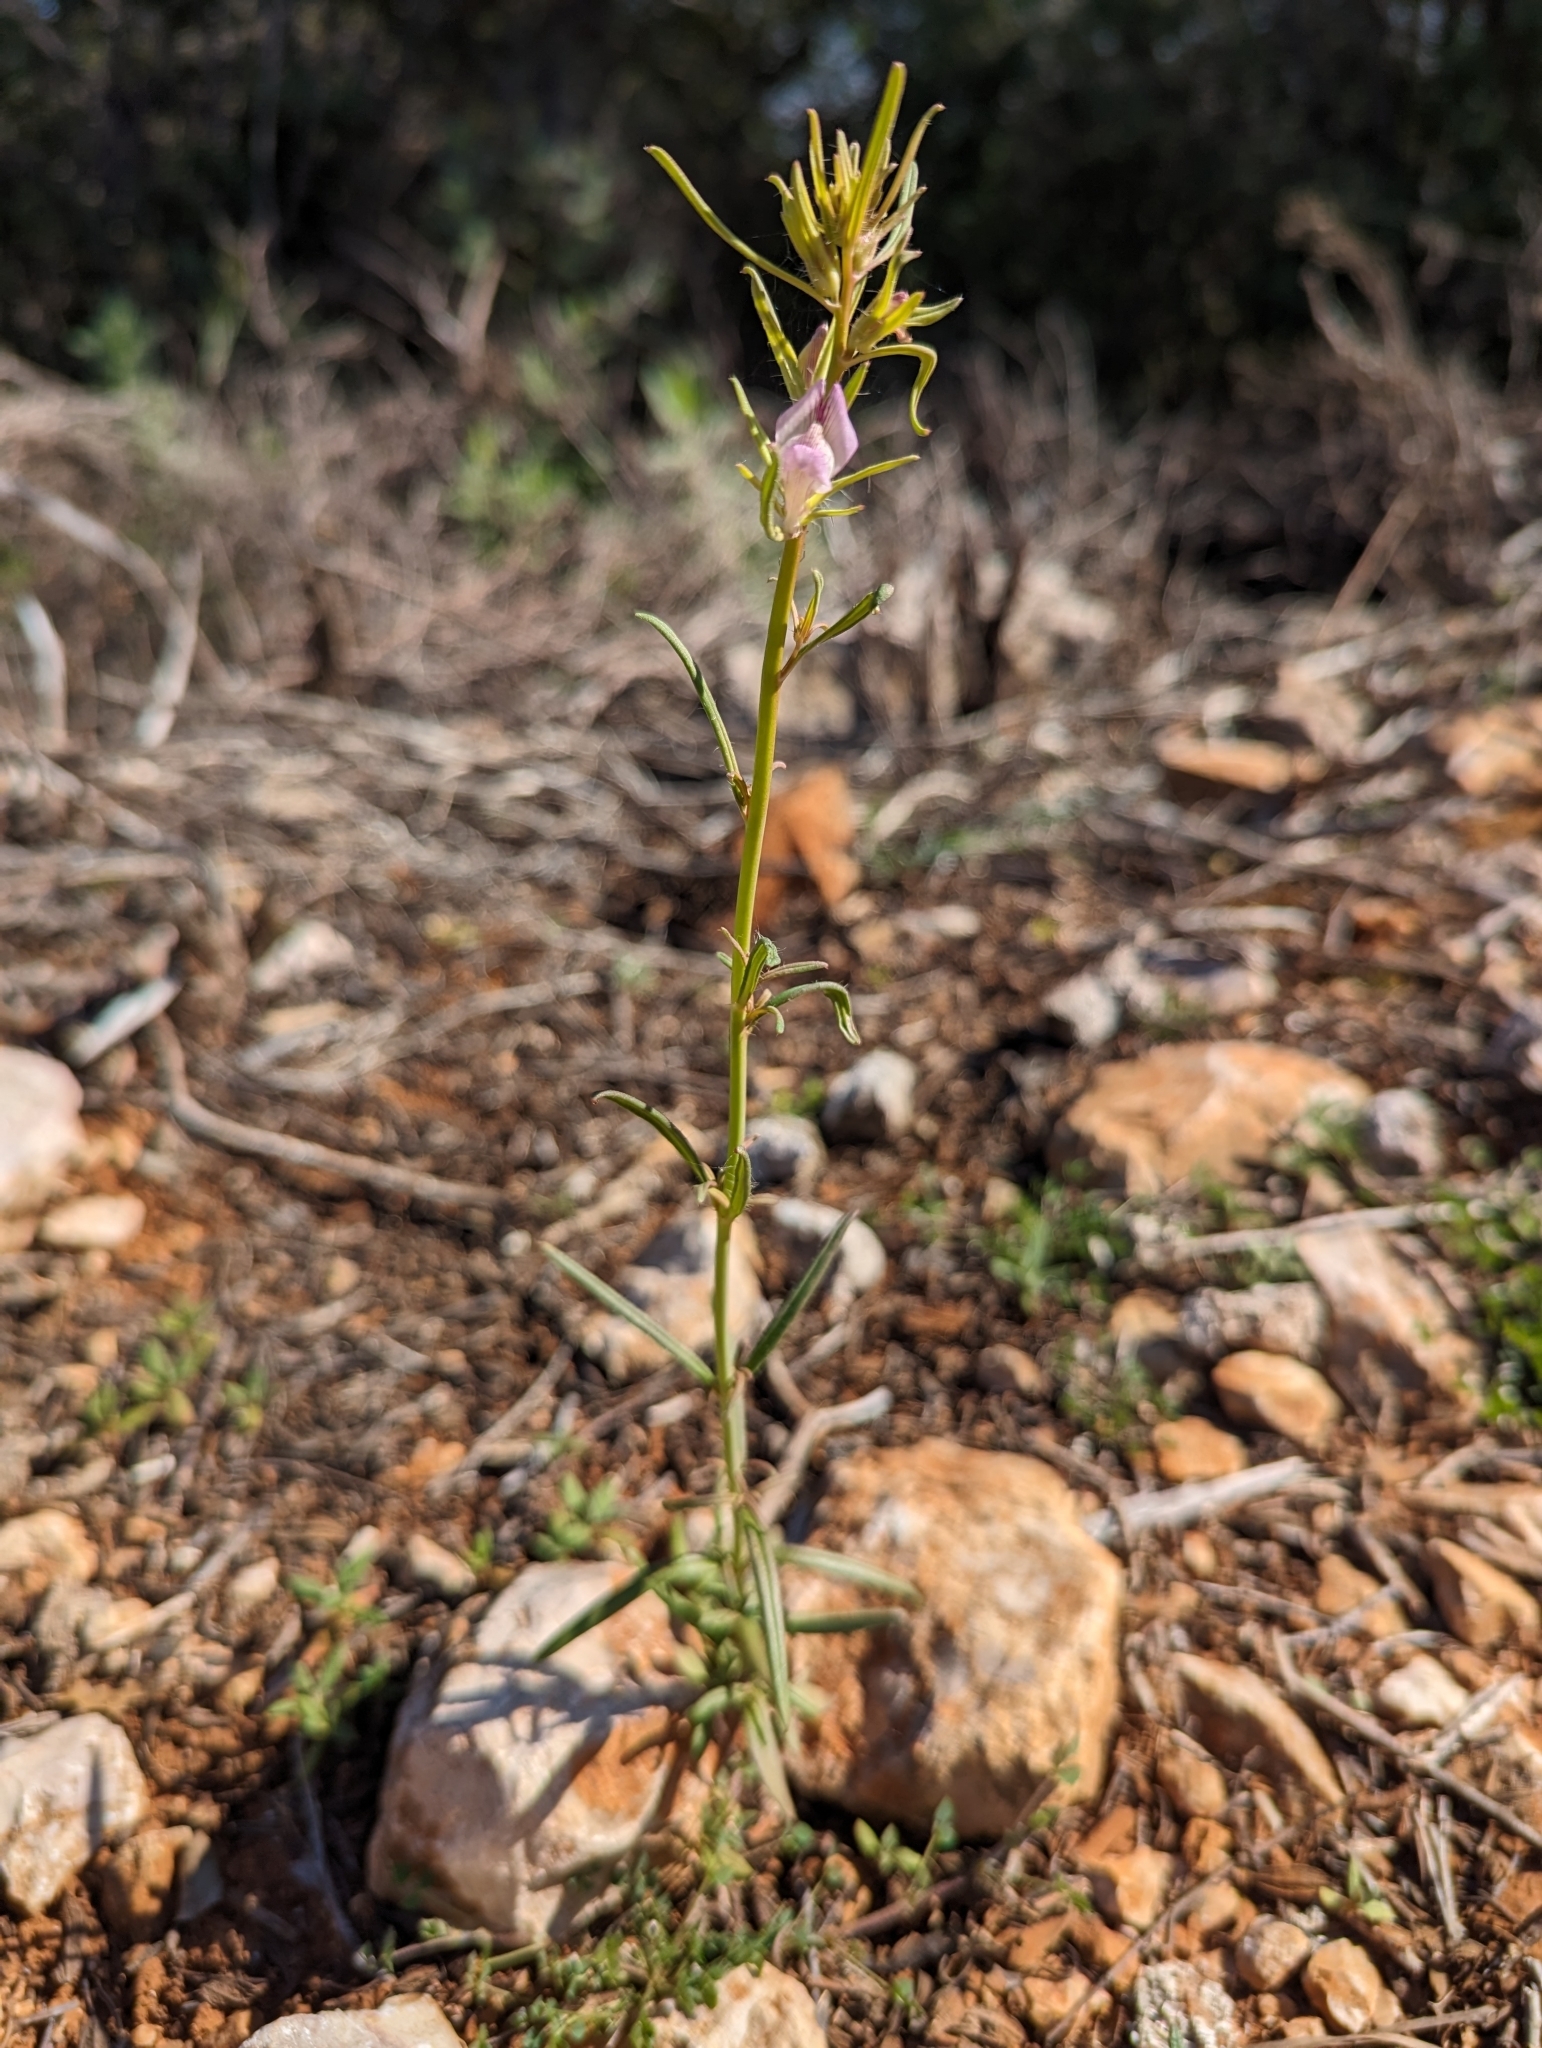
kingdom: Plantae
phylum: Tracheophyta
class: Magnoliopsida
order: Lamiales
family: Plantaginaceae
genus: Misopates
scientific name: Misopates orontium
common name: Weasel's-snout
